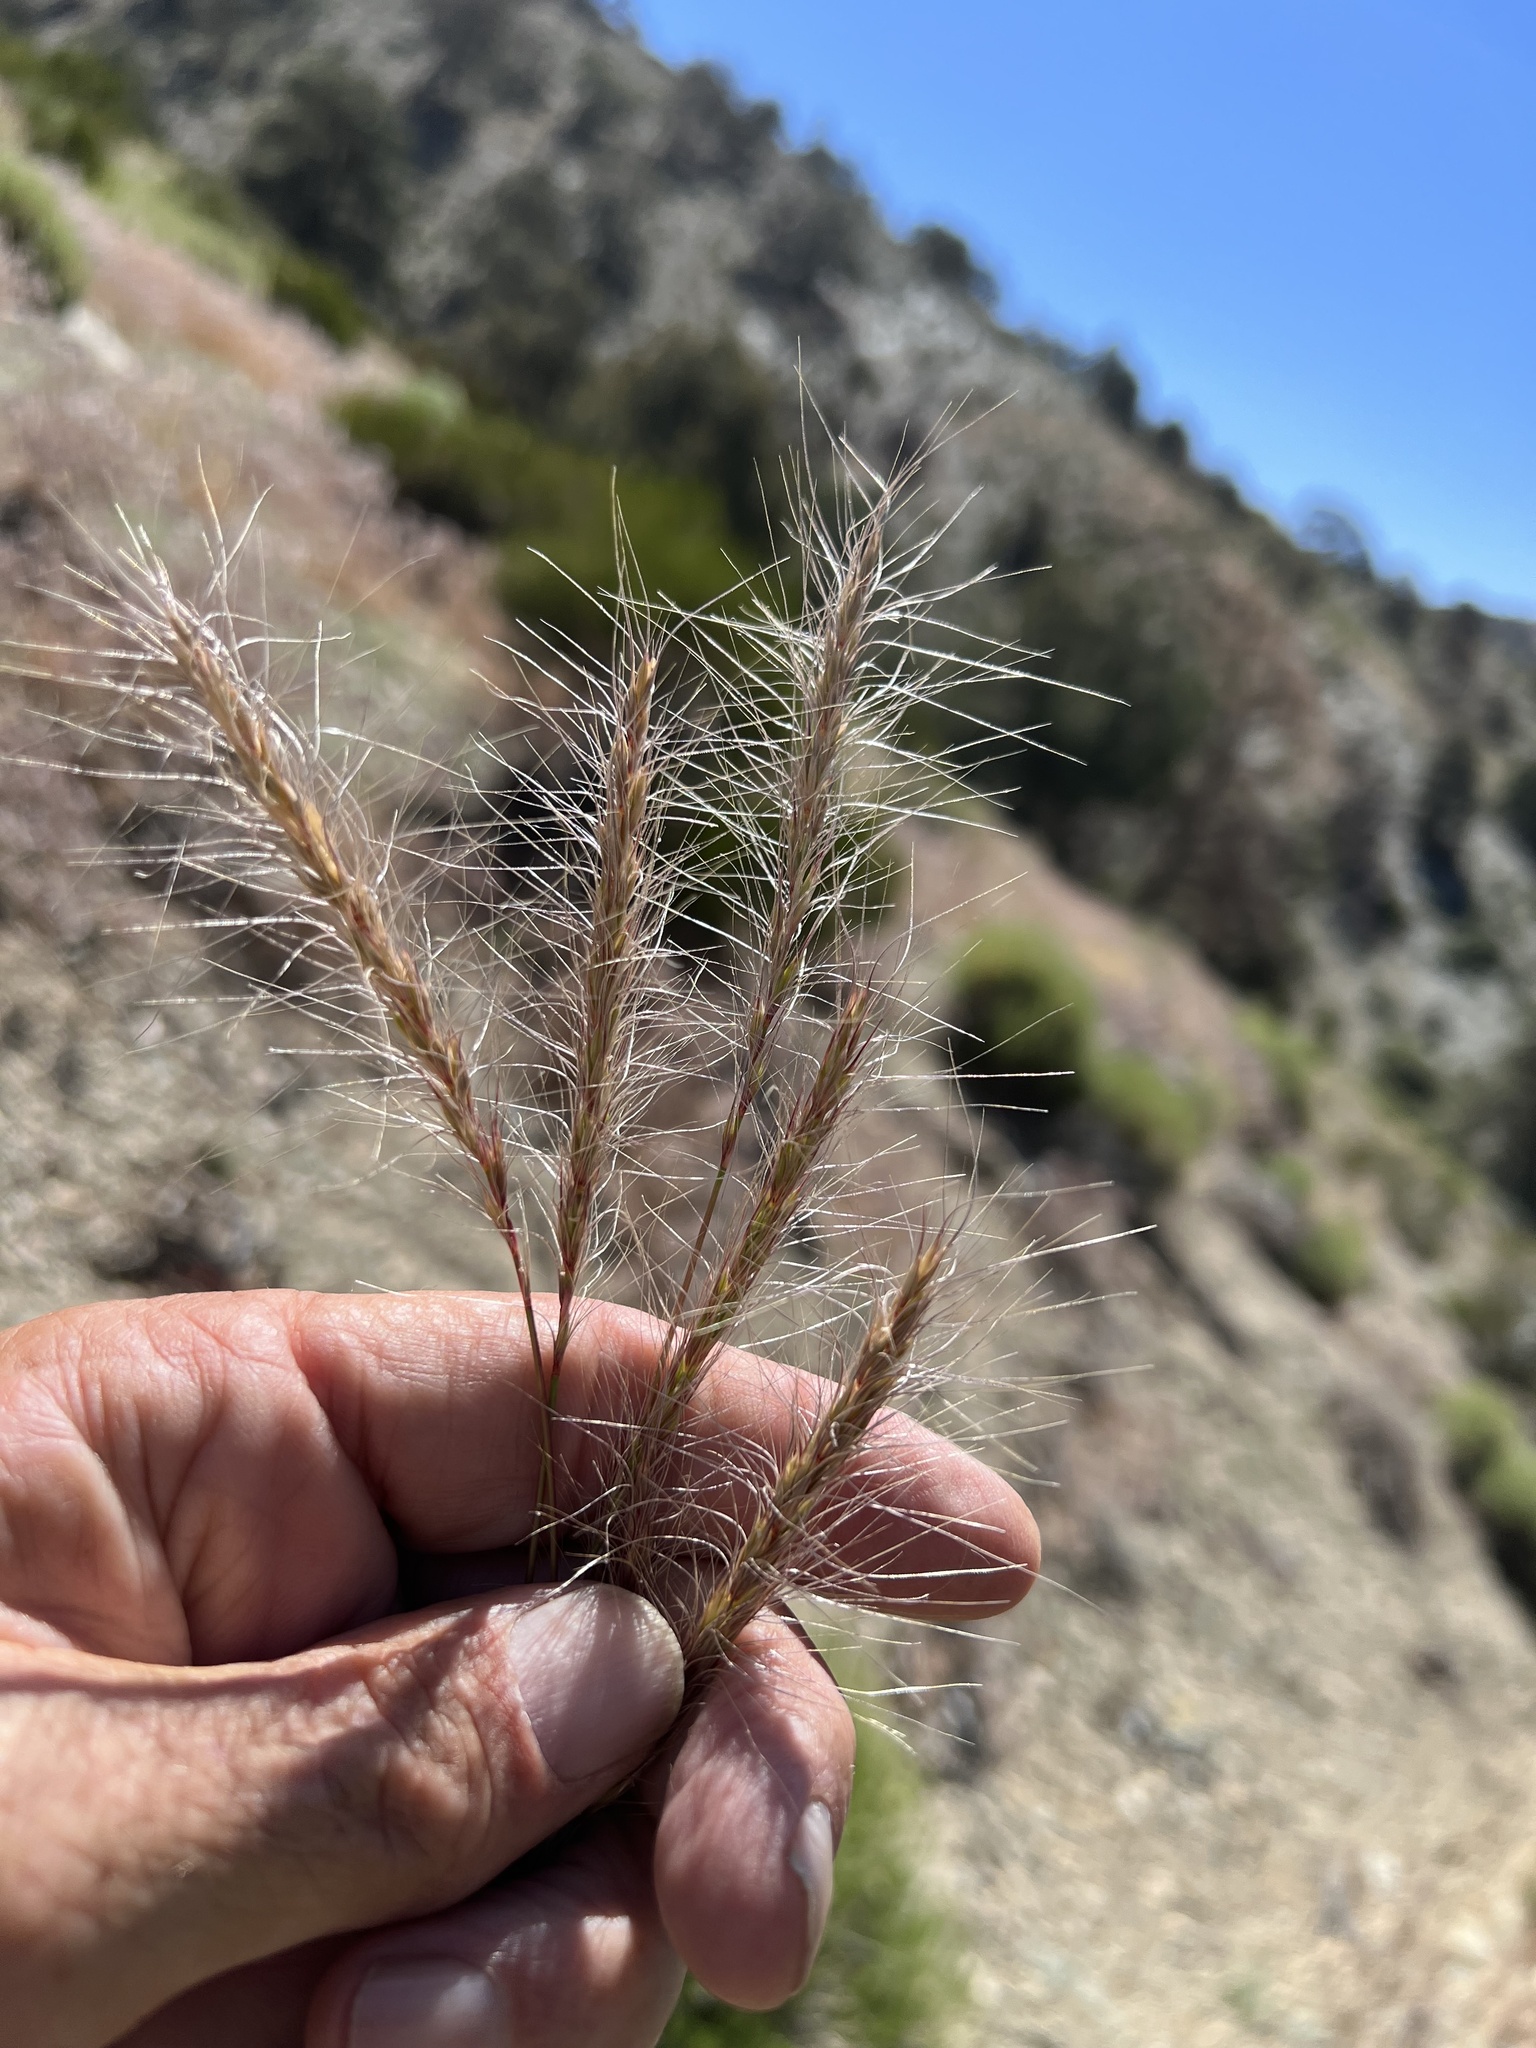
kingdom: Plantae
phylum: Tracheophyta
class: Liliopsida
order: Poales
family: Poaceae
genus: Elymus
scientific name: Elymus elymoides
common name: Bottlebrush squirreltail
